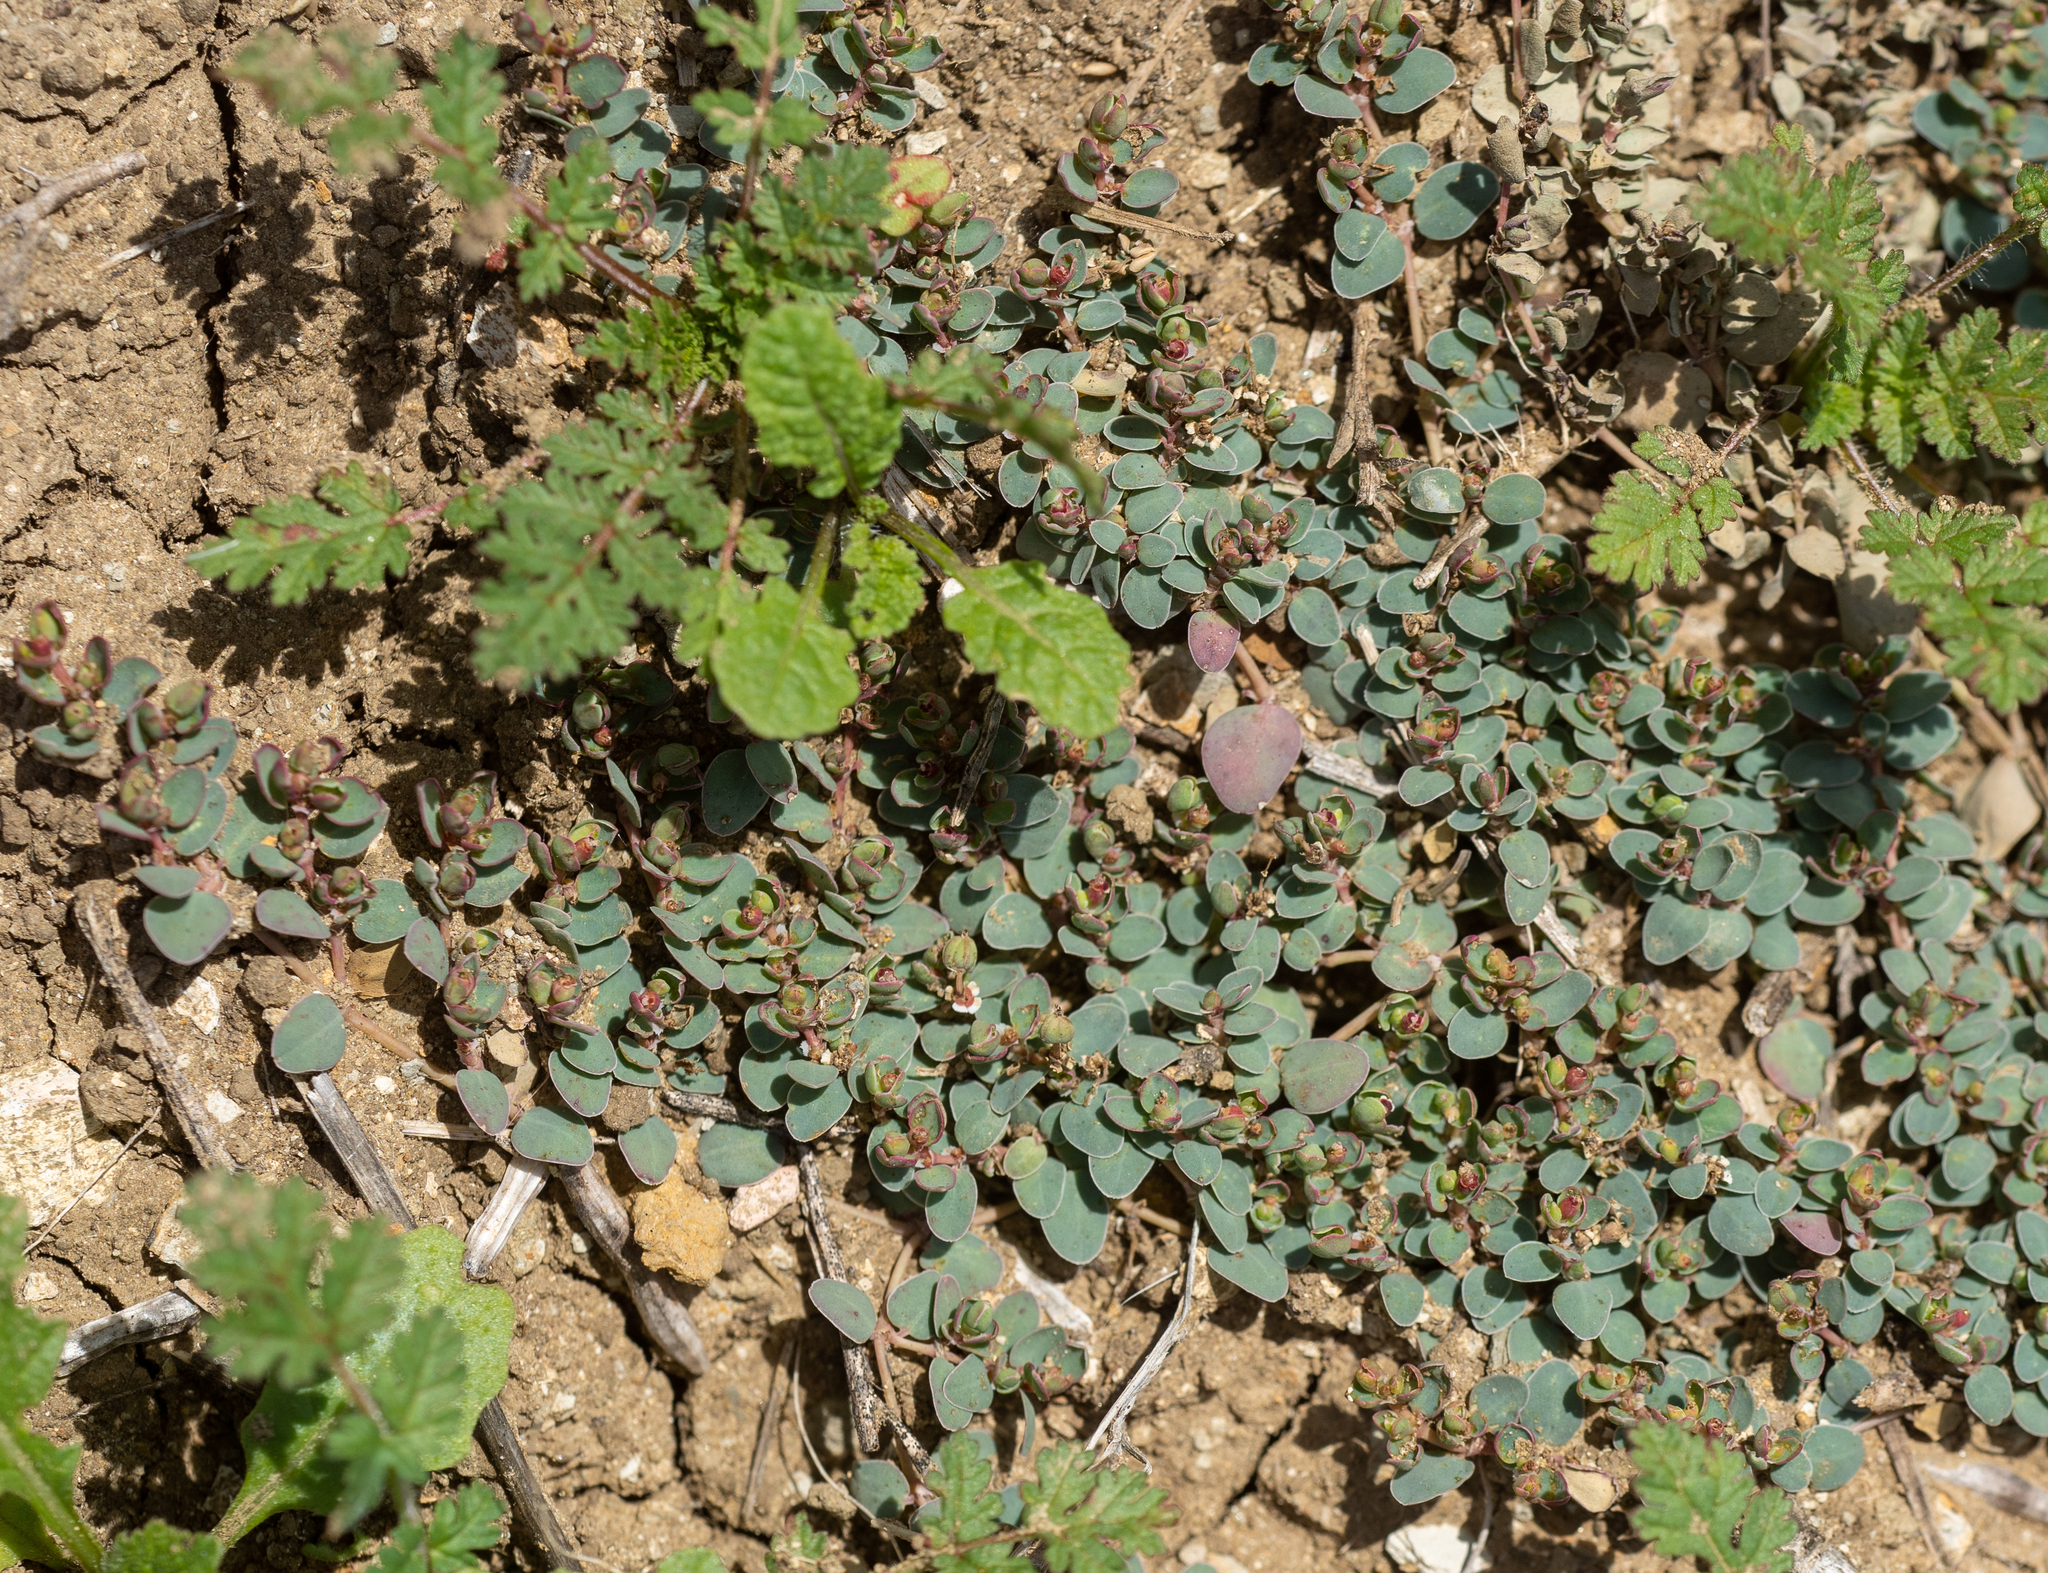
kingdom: Plantae
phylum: Tracheophyta
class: Magnoliopsida
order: Malpighiales
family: Euphorbiaceae
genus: Euphorbia
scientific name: Euphorbia albomarginata
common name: Whitemargin sandmat
